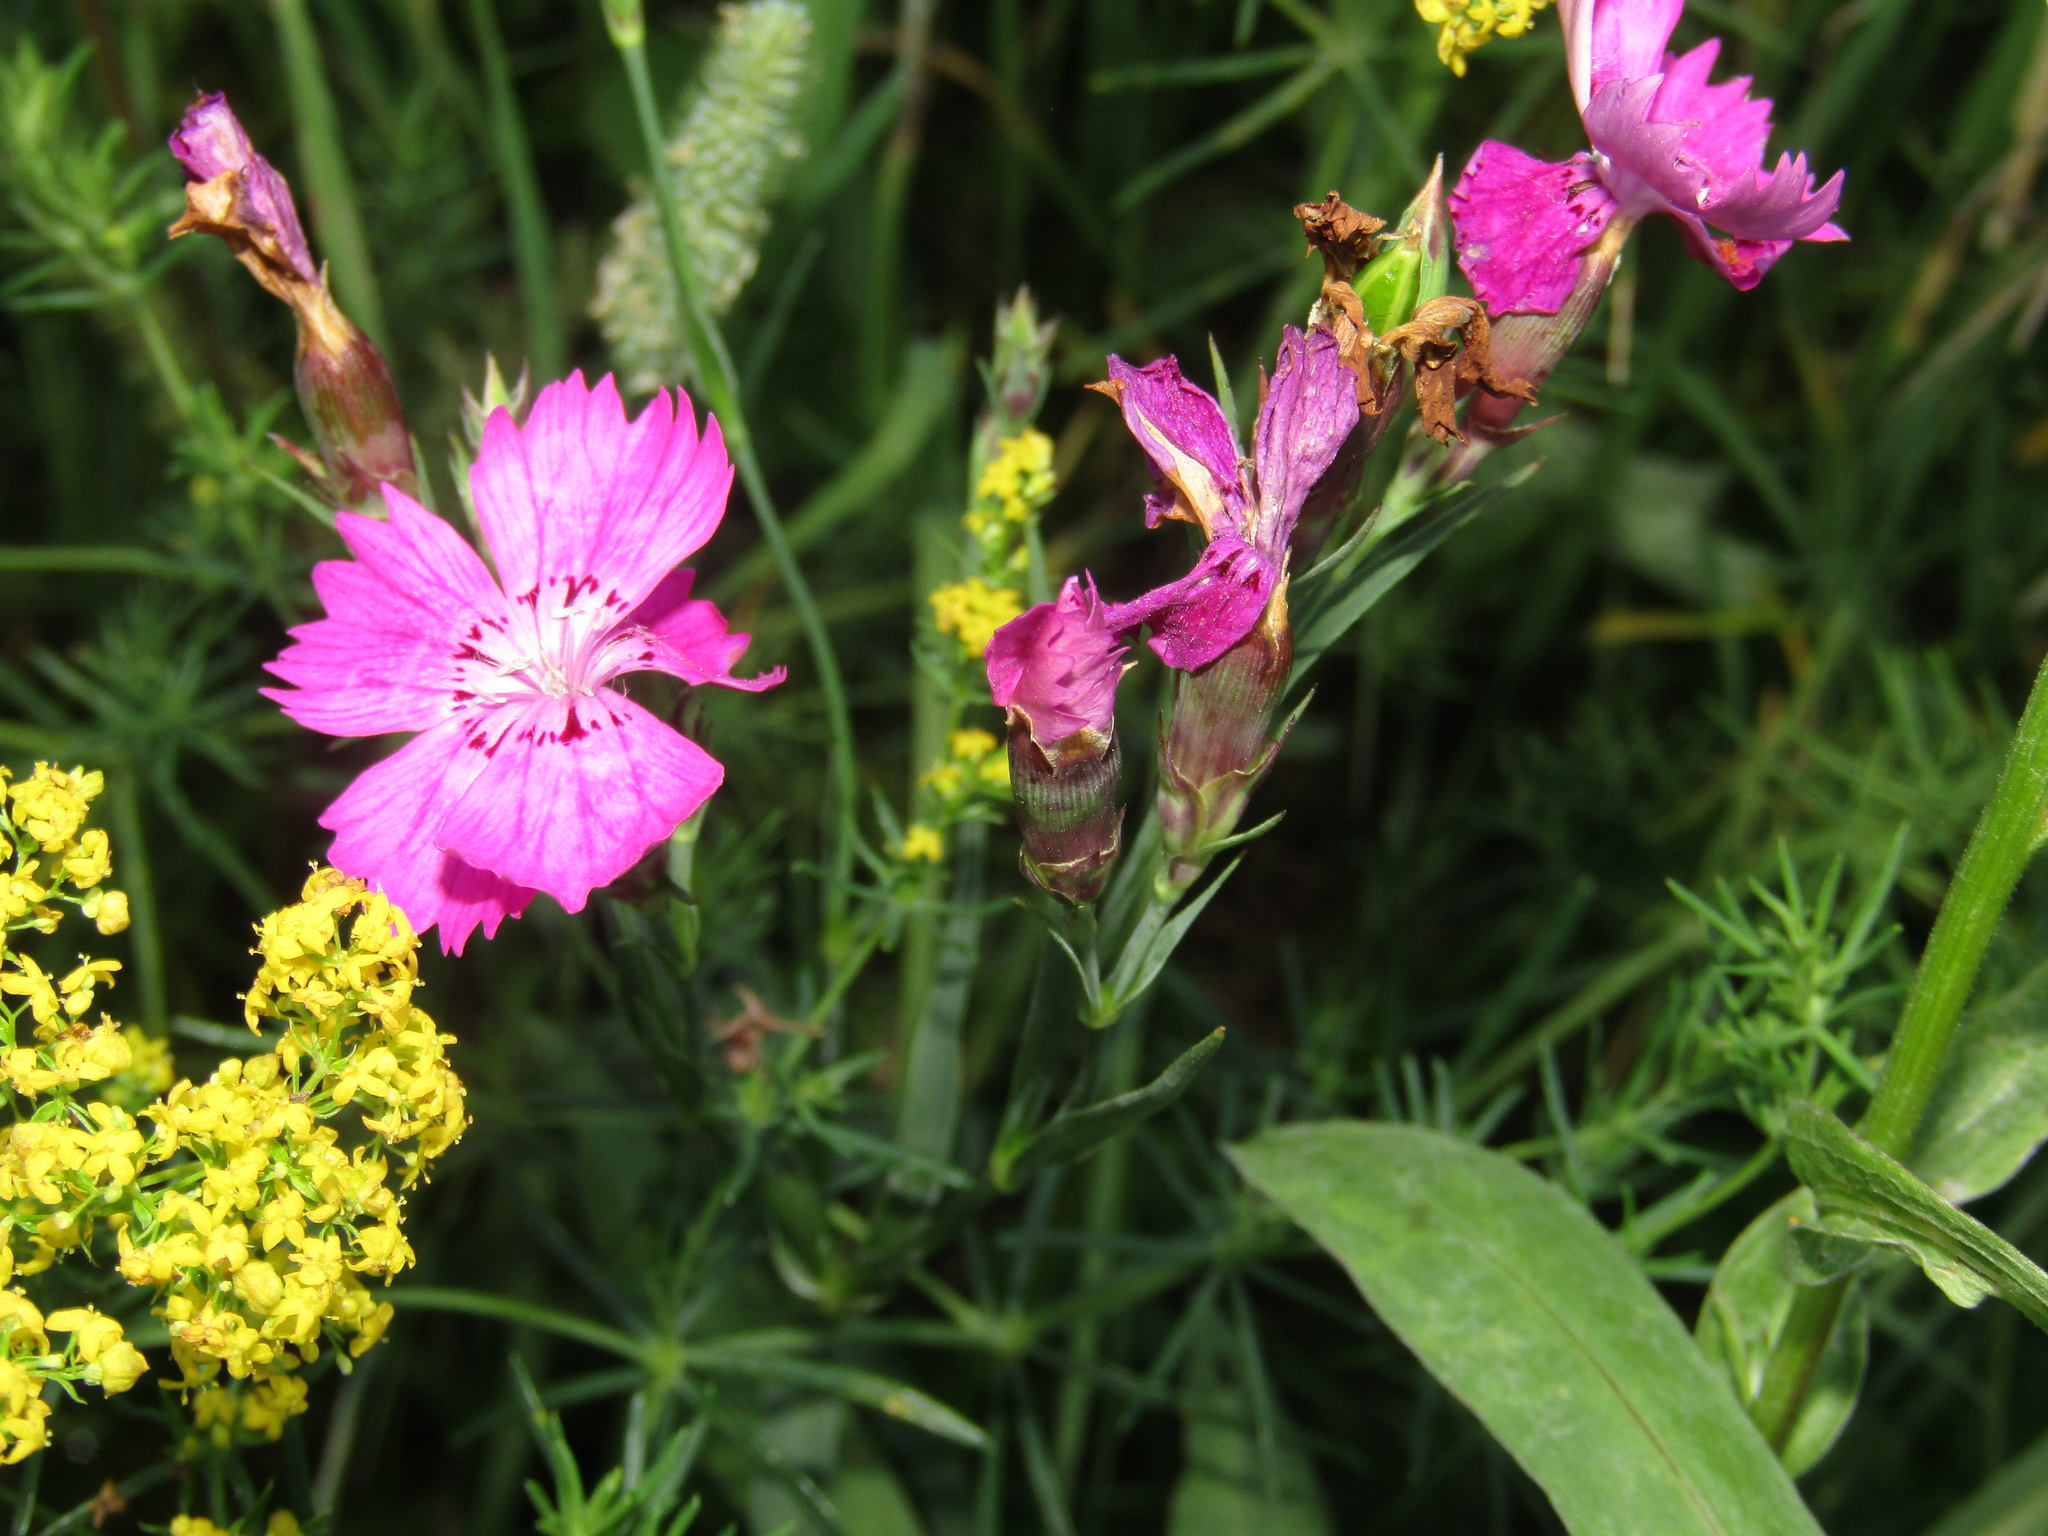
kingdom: Plantae
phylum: Tracheophyta
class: Magnoliopsida
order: Caryophyllales
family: Caryophyllaceae
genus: Dianthus
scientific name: Dianthus chinensis
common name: Rainbow pink
